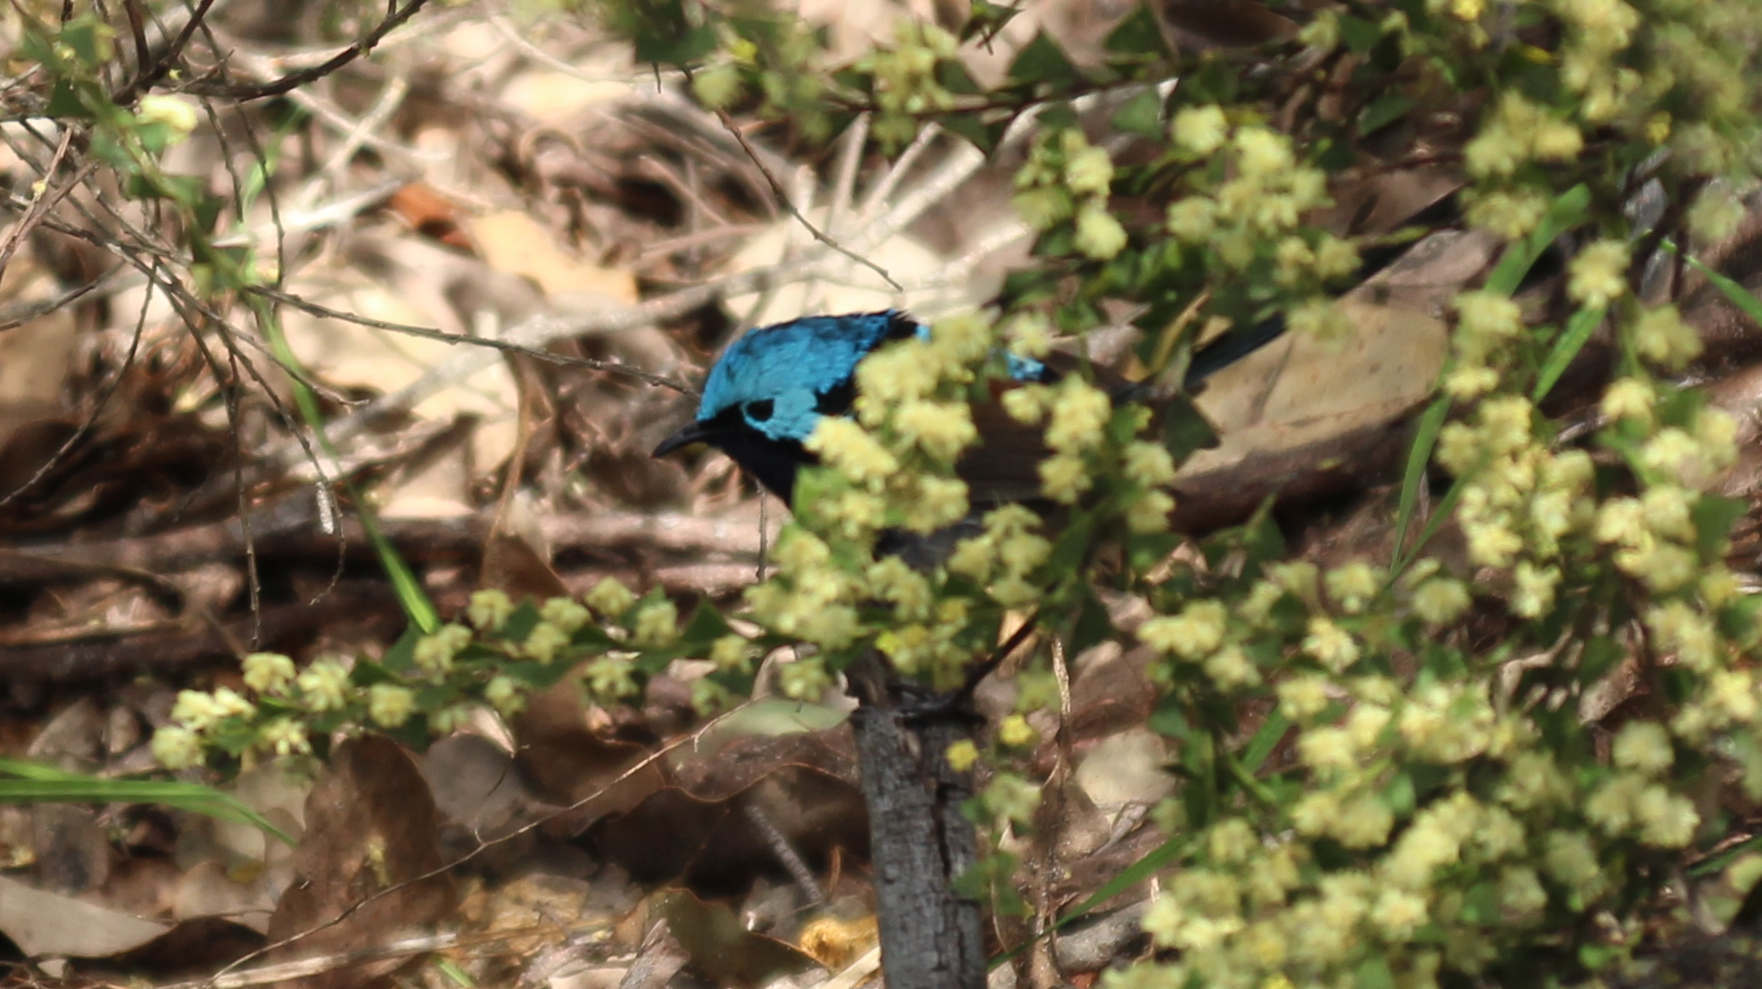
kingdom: Animalia
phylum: Chordata
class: Aves
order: Passeriformes
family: Maluridae
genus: Malurus
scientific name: Malurus elegans
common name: Red-winged fairywren
